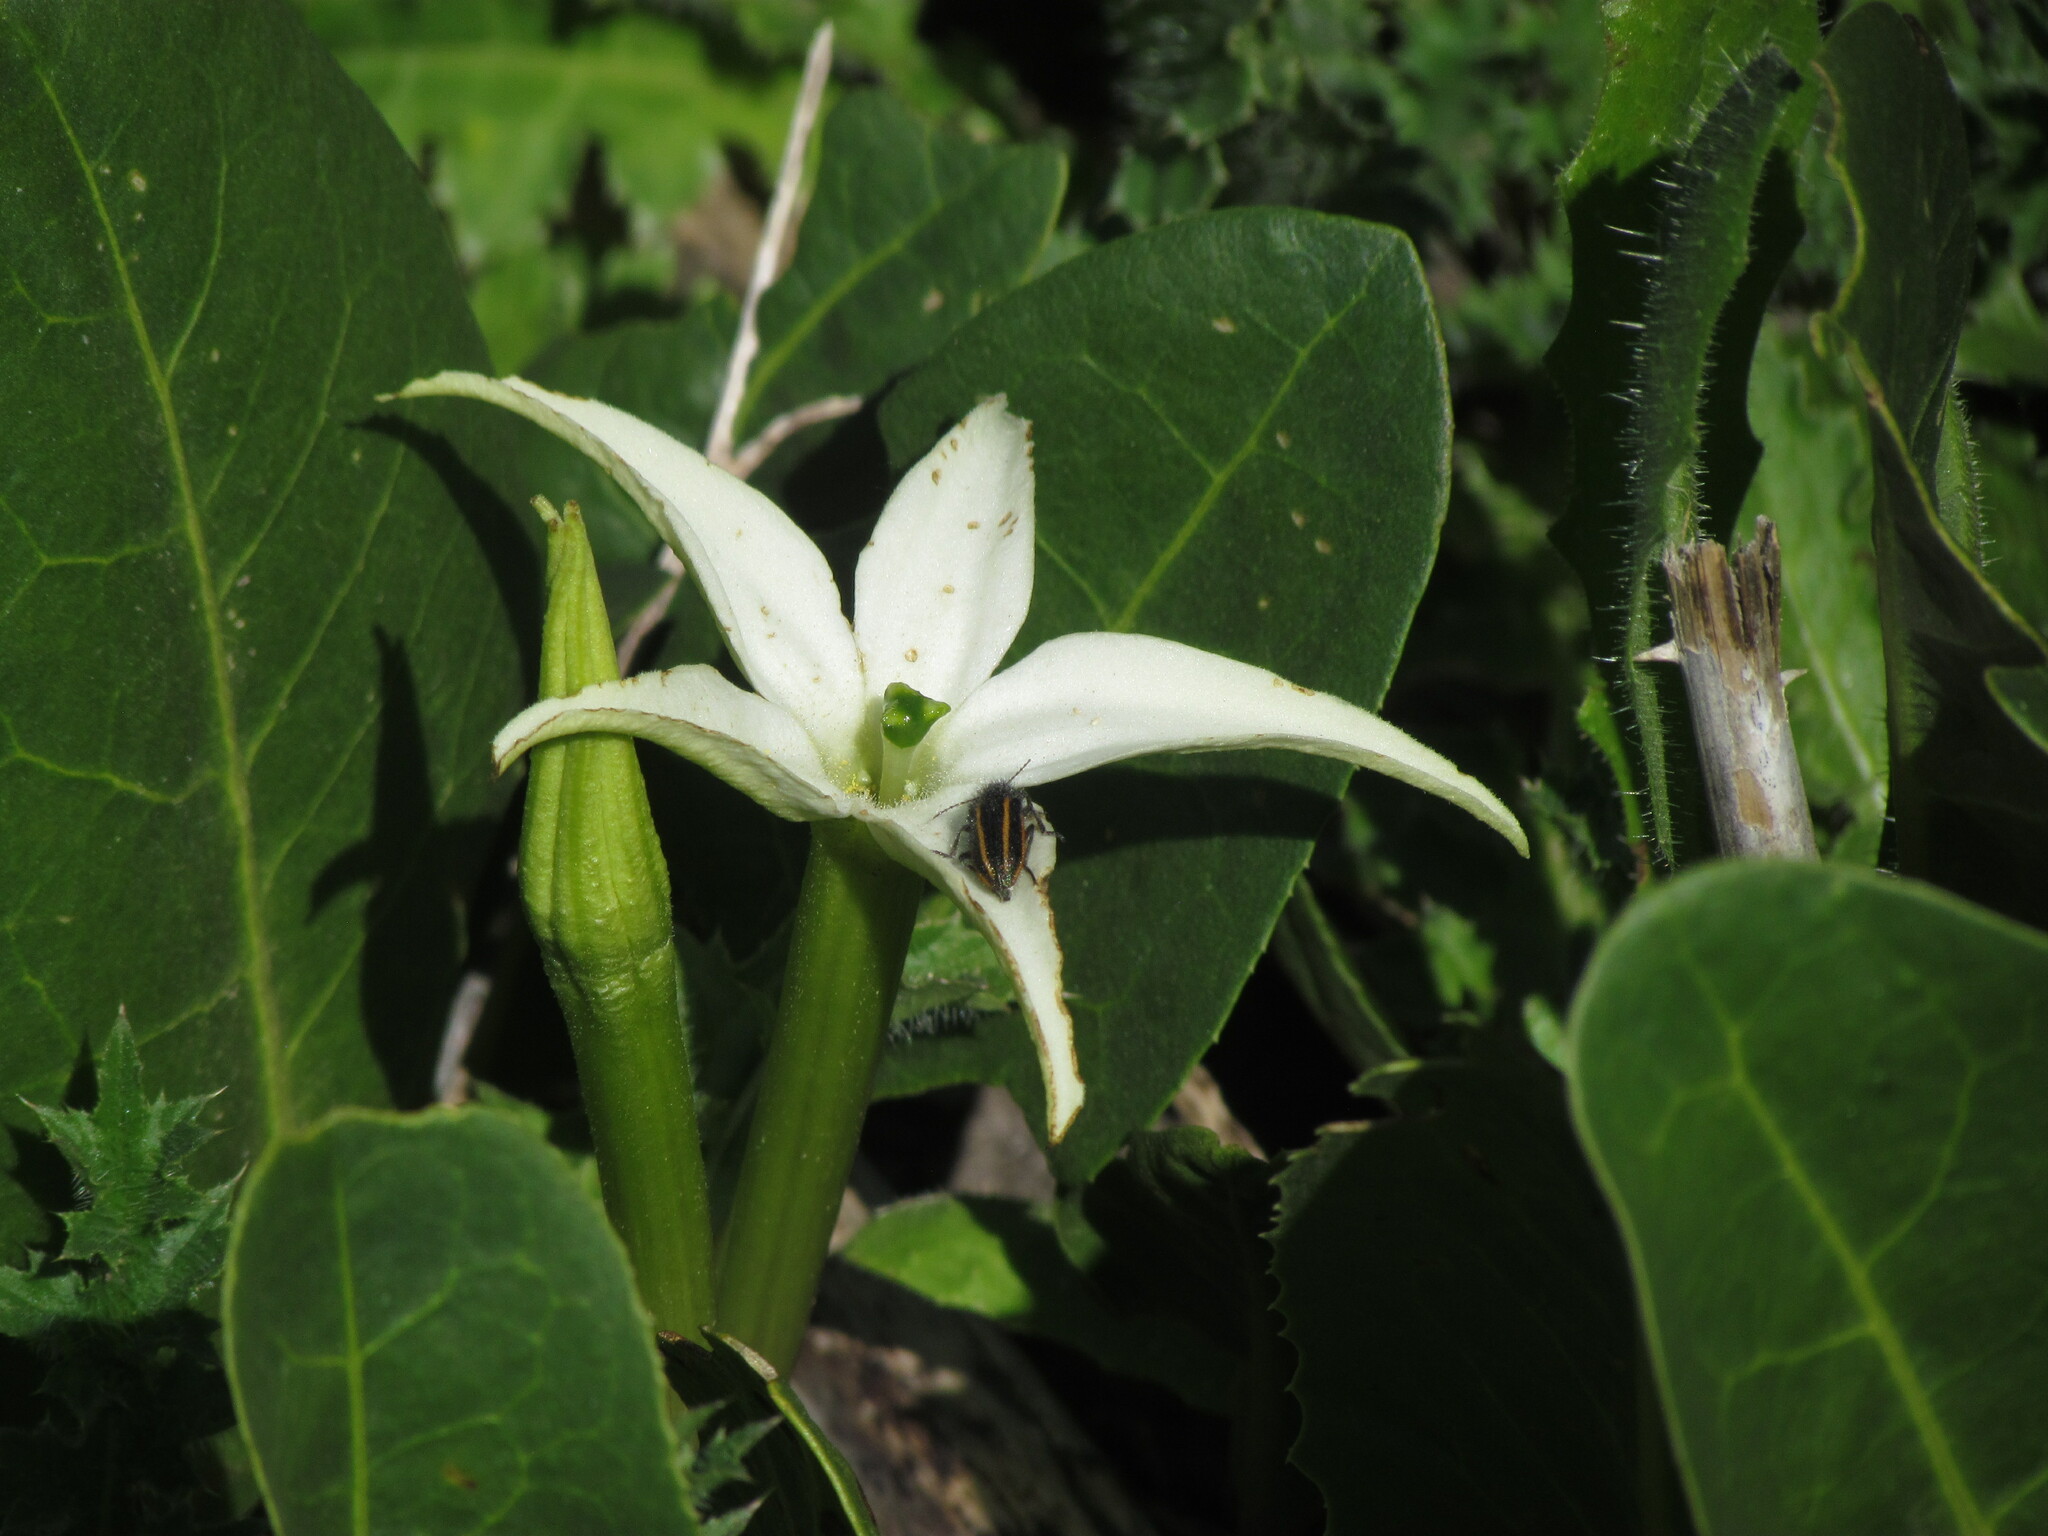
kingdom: Animalia
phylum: Arthropoda
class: Insecta
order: Coleoptera
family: Melyridae
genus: Astylus
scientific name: Astylus
